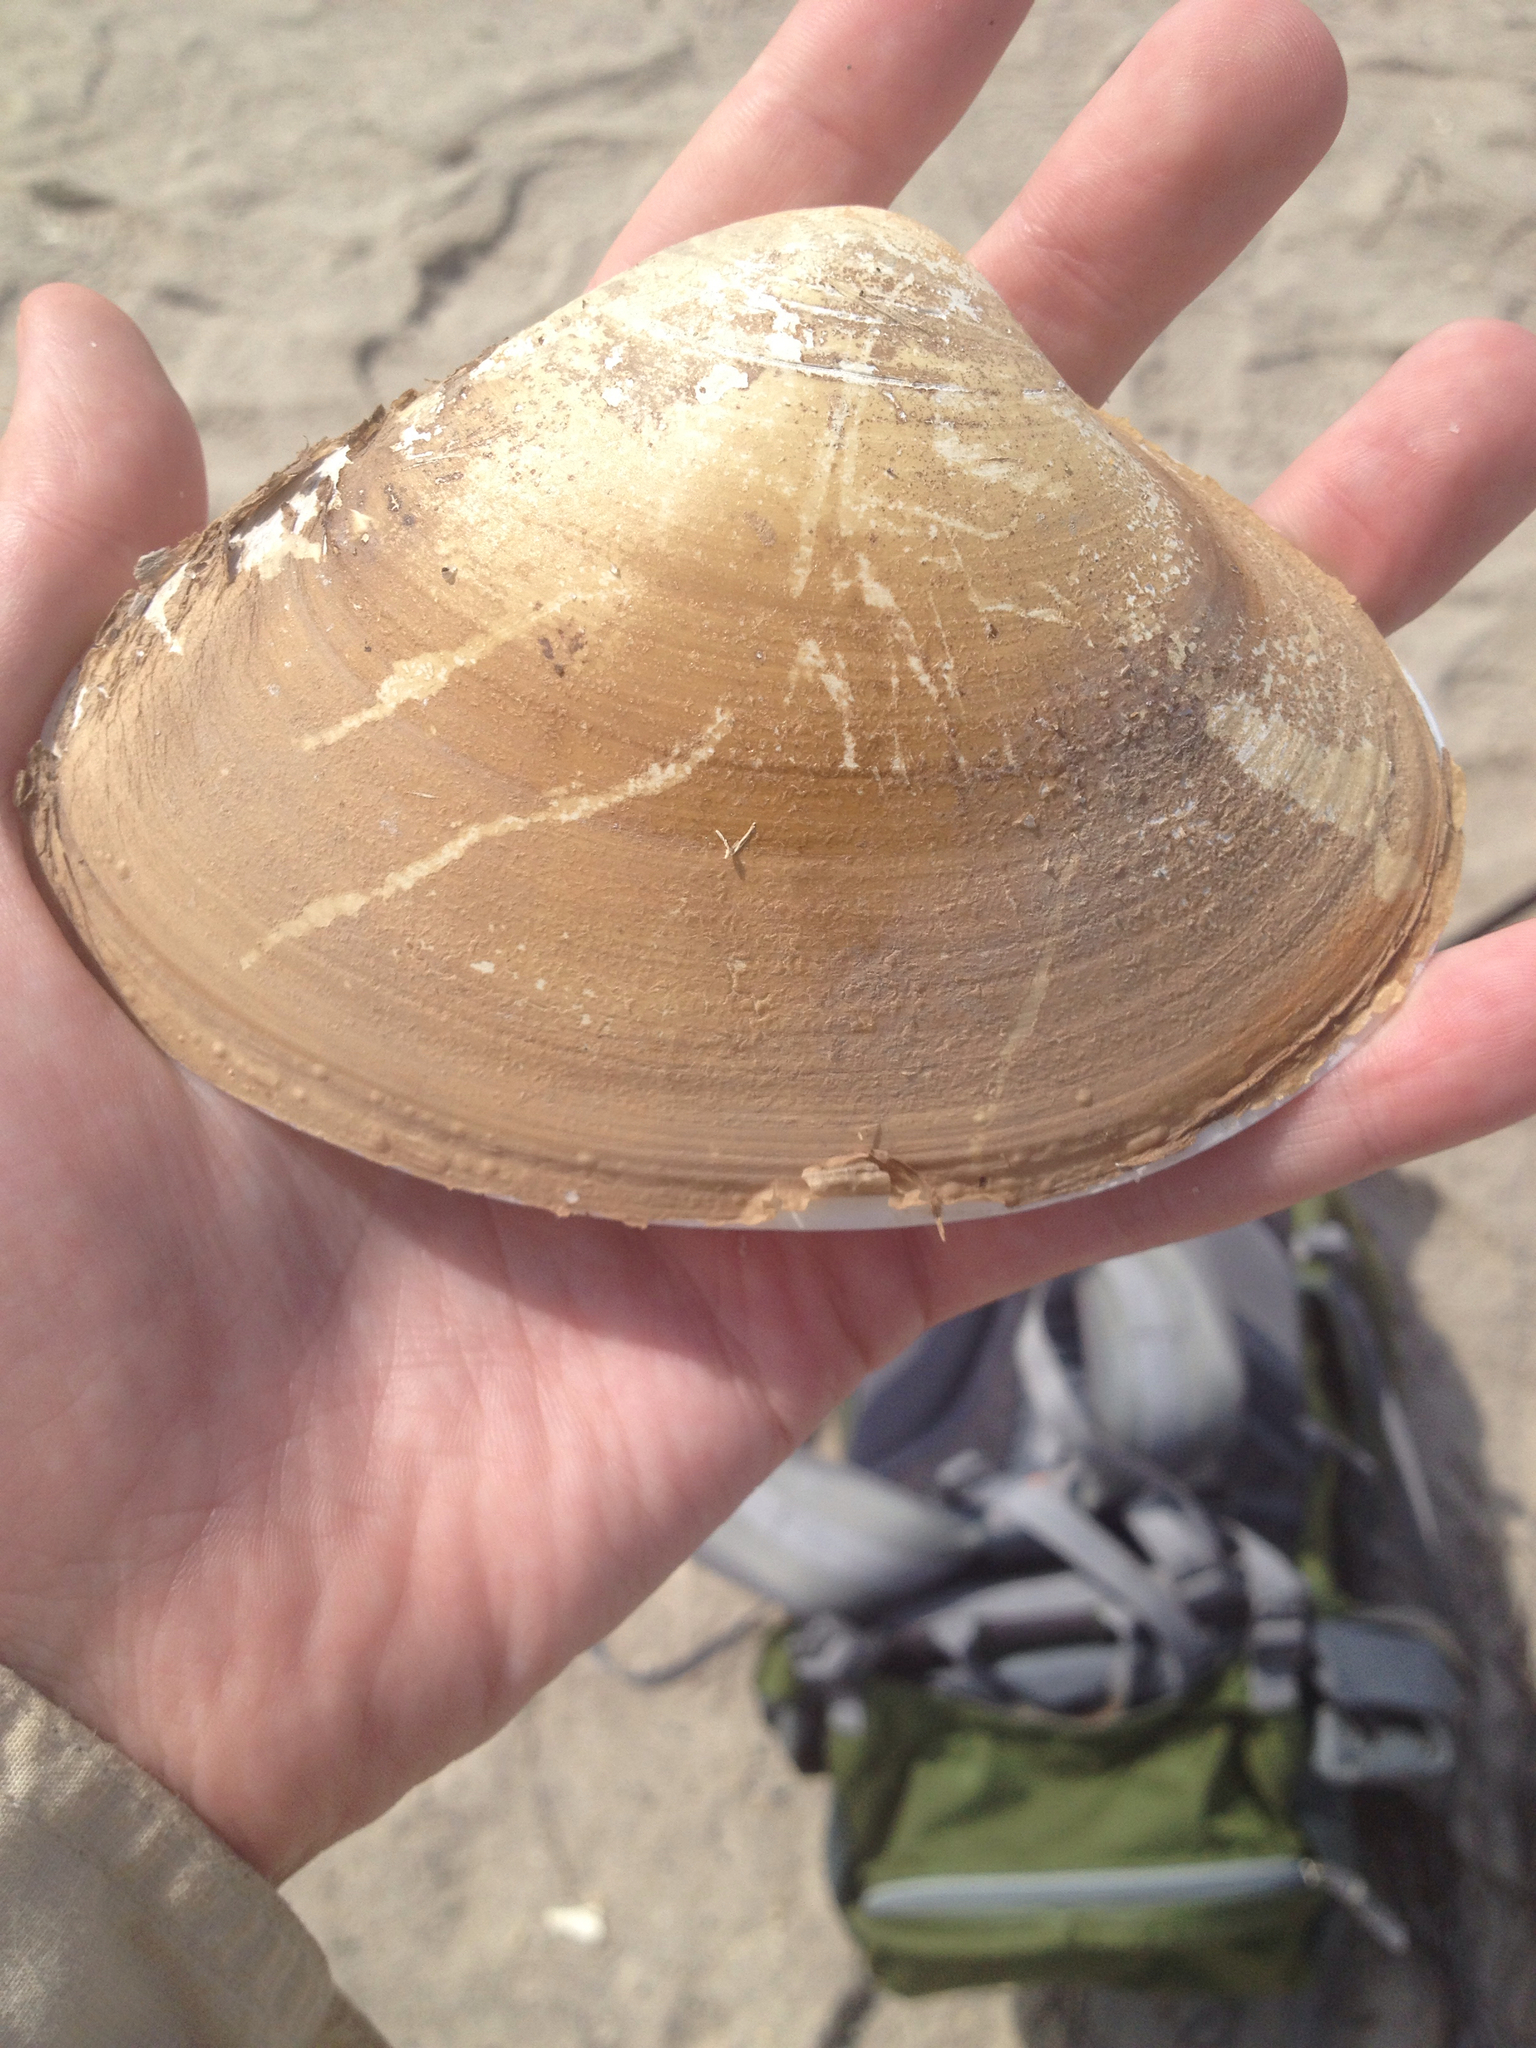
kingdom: Animalia
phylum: Mollusca
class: Bivalvia
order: Venerida
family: Mactridae
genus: Spisula
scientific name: Spisula solidissima
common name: Atlantic surf clam
